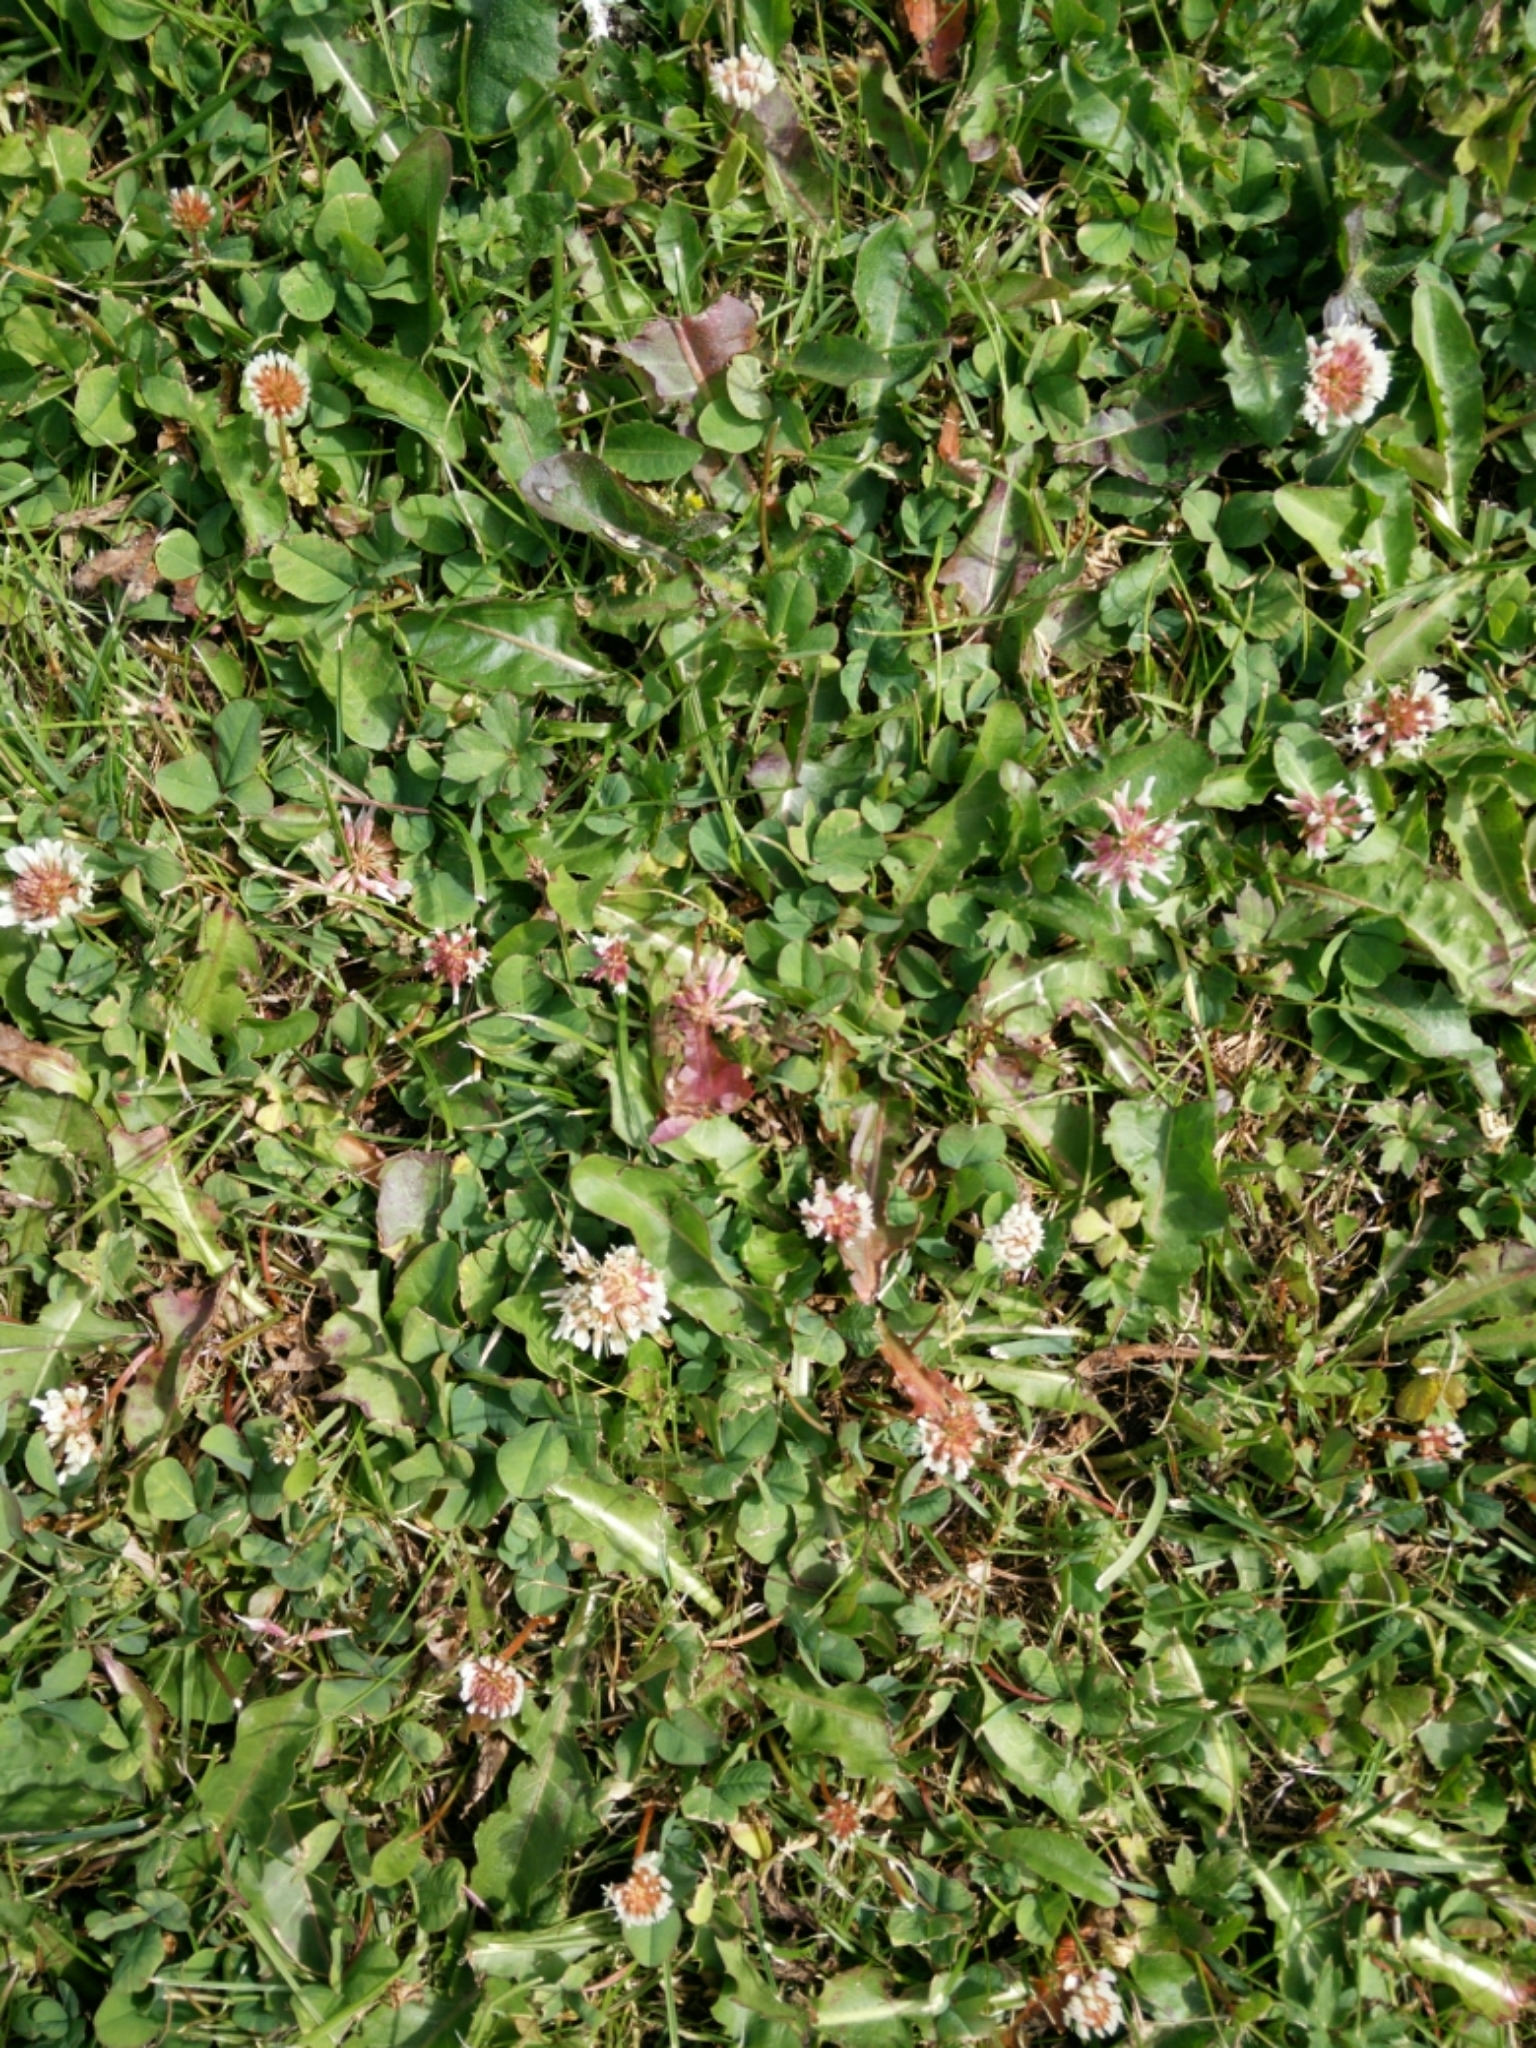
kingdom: Plantae
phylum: Tracheophyta
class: Magnoliopsida
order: Fabales
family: Fabaceae
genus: Trifolium
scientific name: Trifolium repens
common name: White clover
